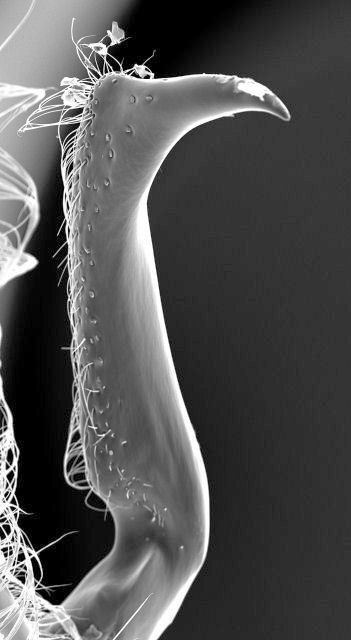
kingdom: Animalia
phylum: Arthropoda
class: Insecta
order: Hymenoptera
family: Formicidae
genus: Neivamyrmex
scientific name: Neivamyrmex opacithorax
